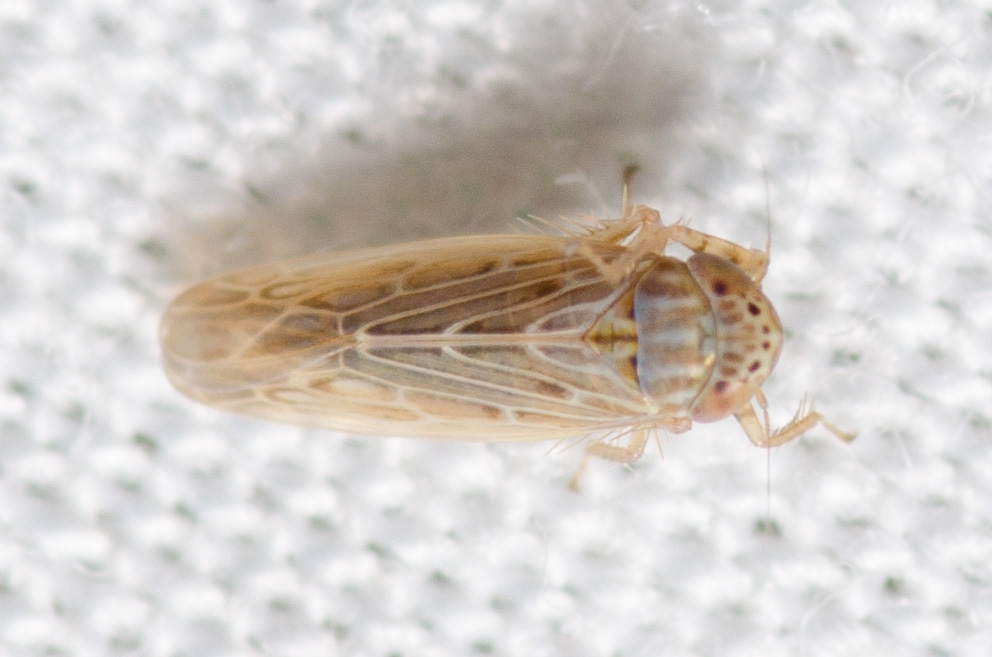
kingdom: Animalia
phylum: Arthropoda
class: Insecta
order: Hemiptera
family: Cicadellidae
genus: Graminella
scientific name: Graminella sonora
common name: Lesser lawn leafhopper
